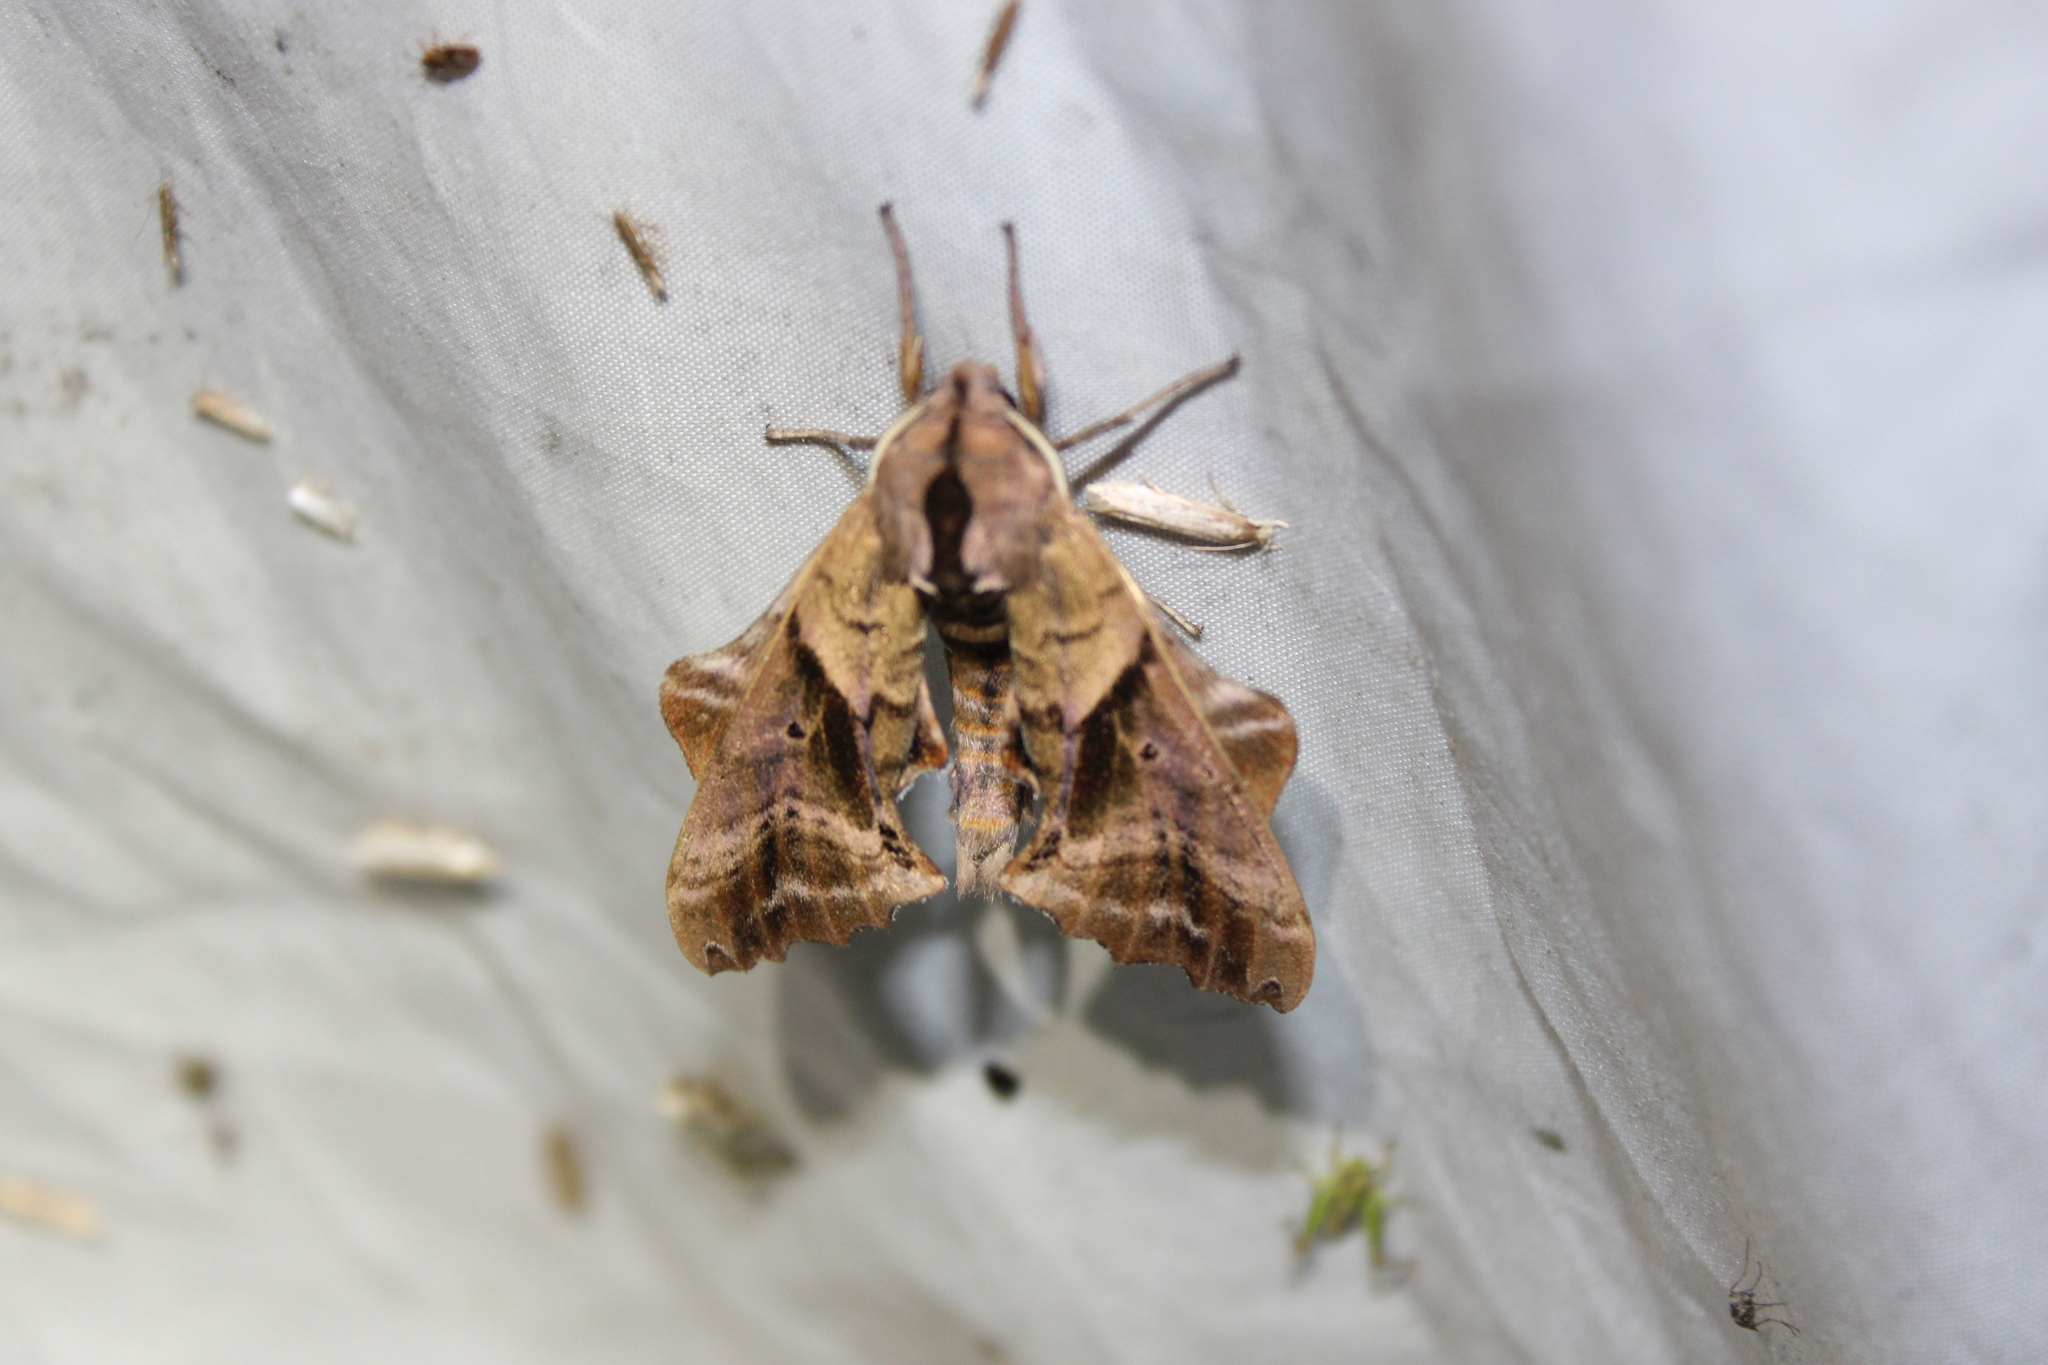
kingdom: Animalia
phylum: Arthropoda
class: Insecta
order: Lepidoptera
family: Sphingidae
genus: Paonias
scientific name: Paonias excaecata
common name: Blind-eyed sphinx
